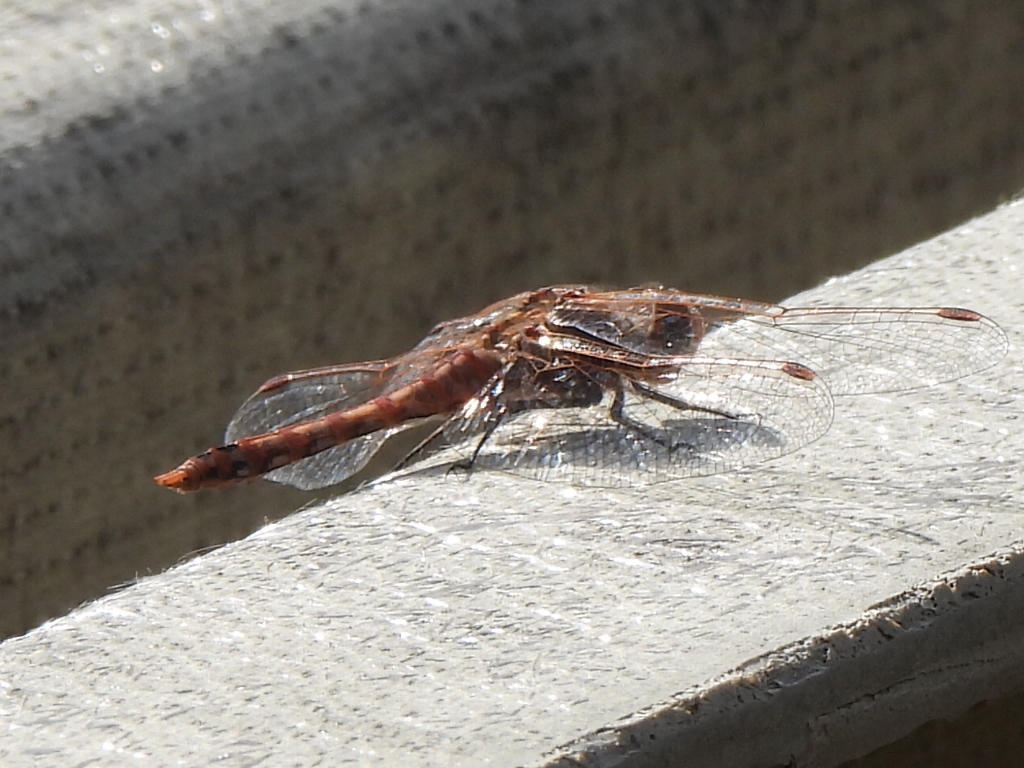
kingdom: Animalia
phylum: Arthropoda
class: Insecta
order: Odonata
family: Libellulidae
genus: Sympetrum
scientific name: Sympetrum corruptum
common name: Variegated meadowhawk
